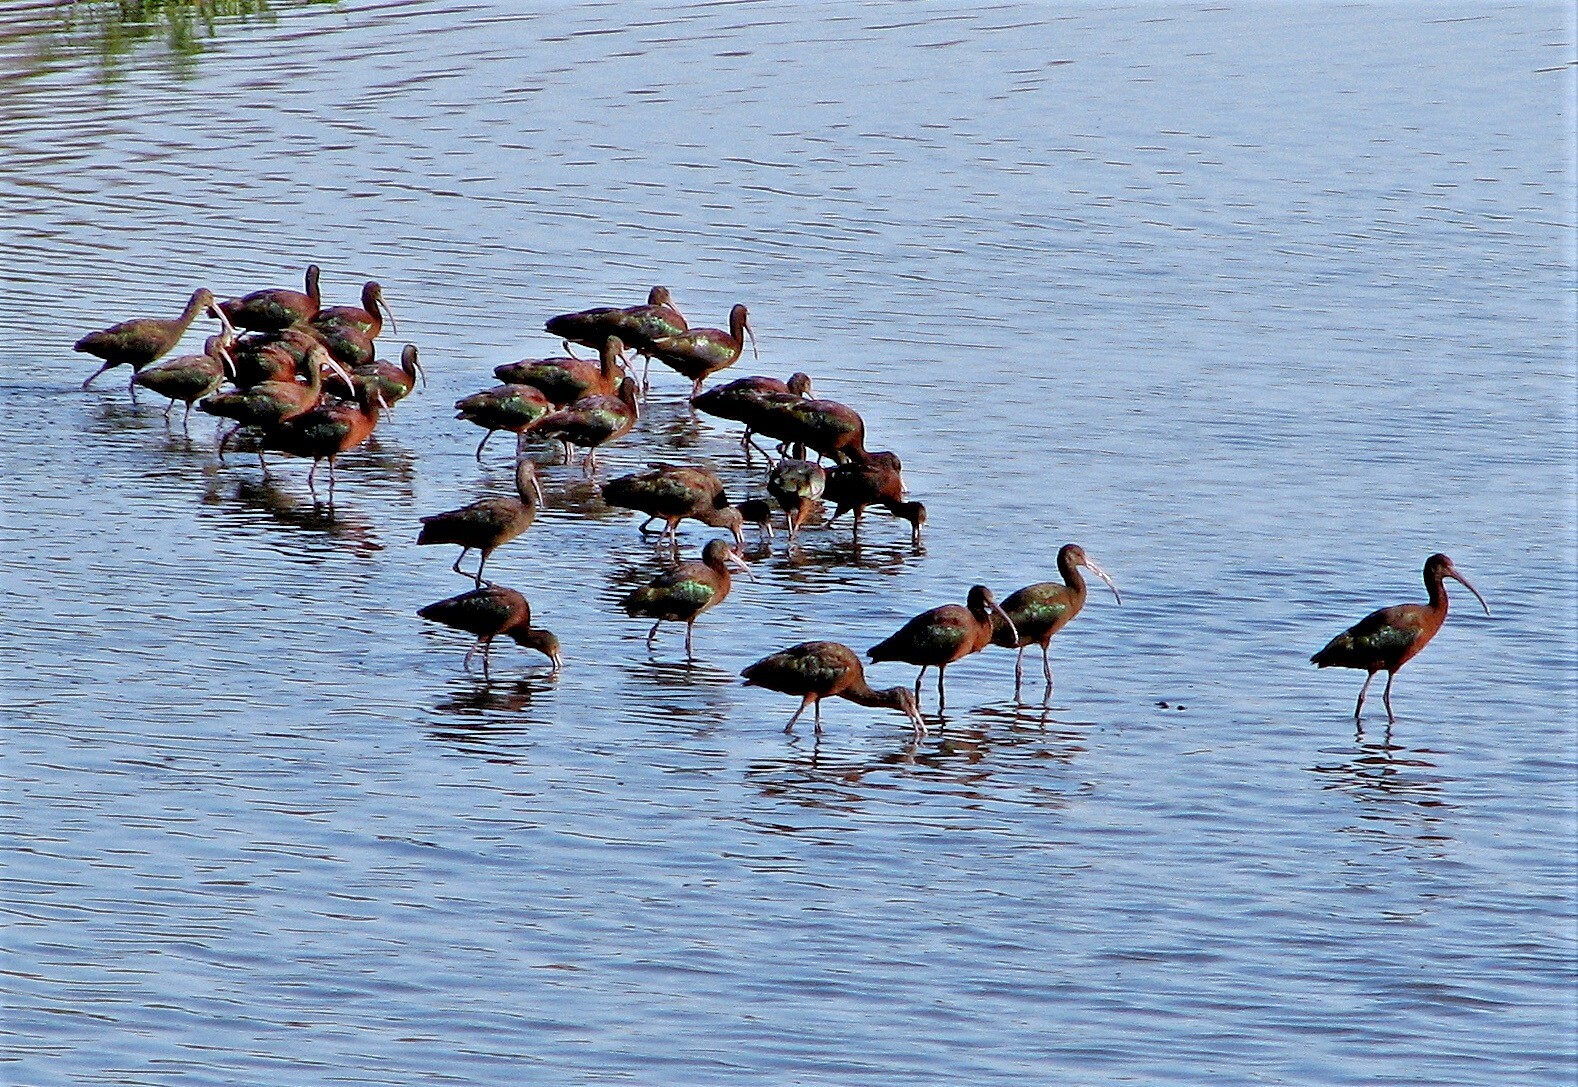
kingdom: Animalia
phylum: Chordata
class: Aves
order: Pelecaniformes
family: Threskiornithidae
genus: Plegadis
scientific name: Plegadis chihi
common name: White-faced ibis
